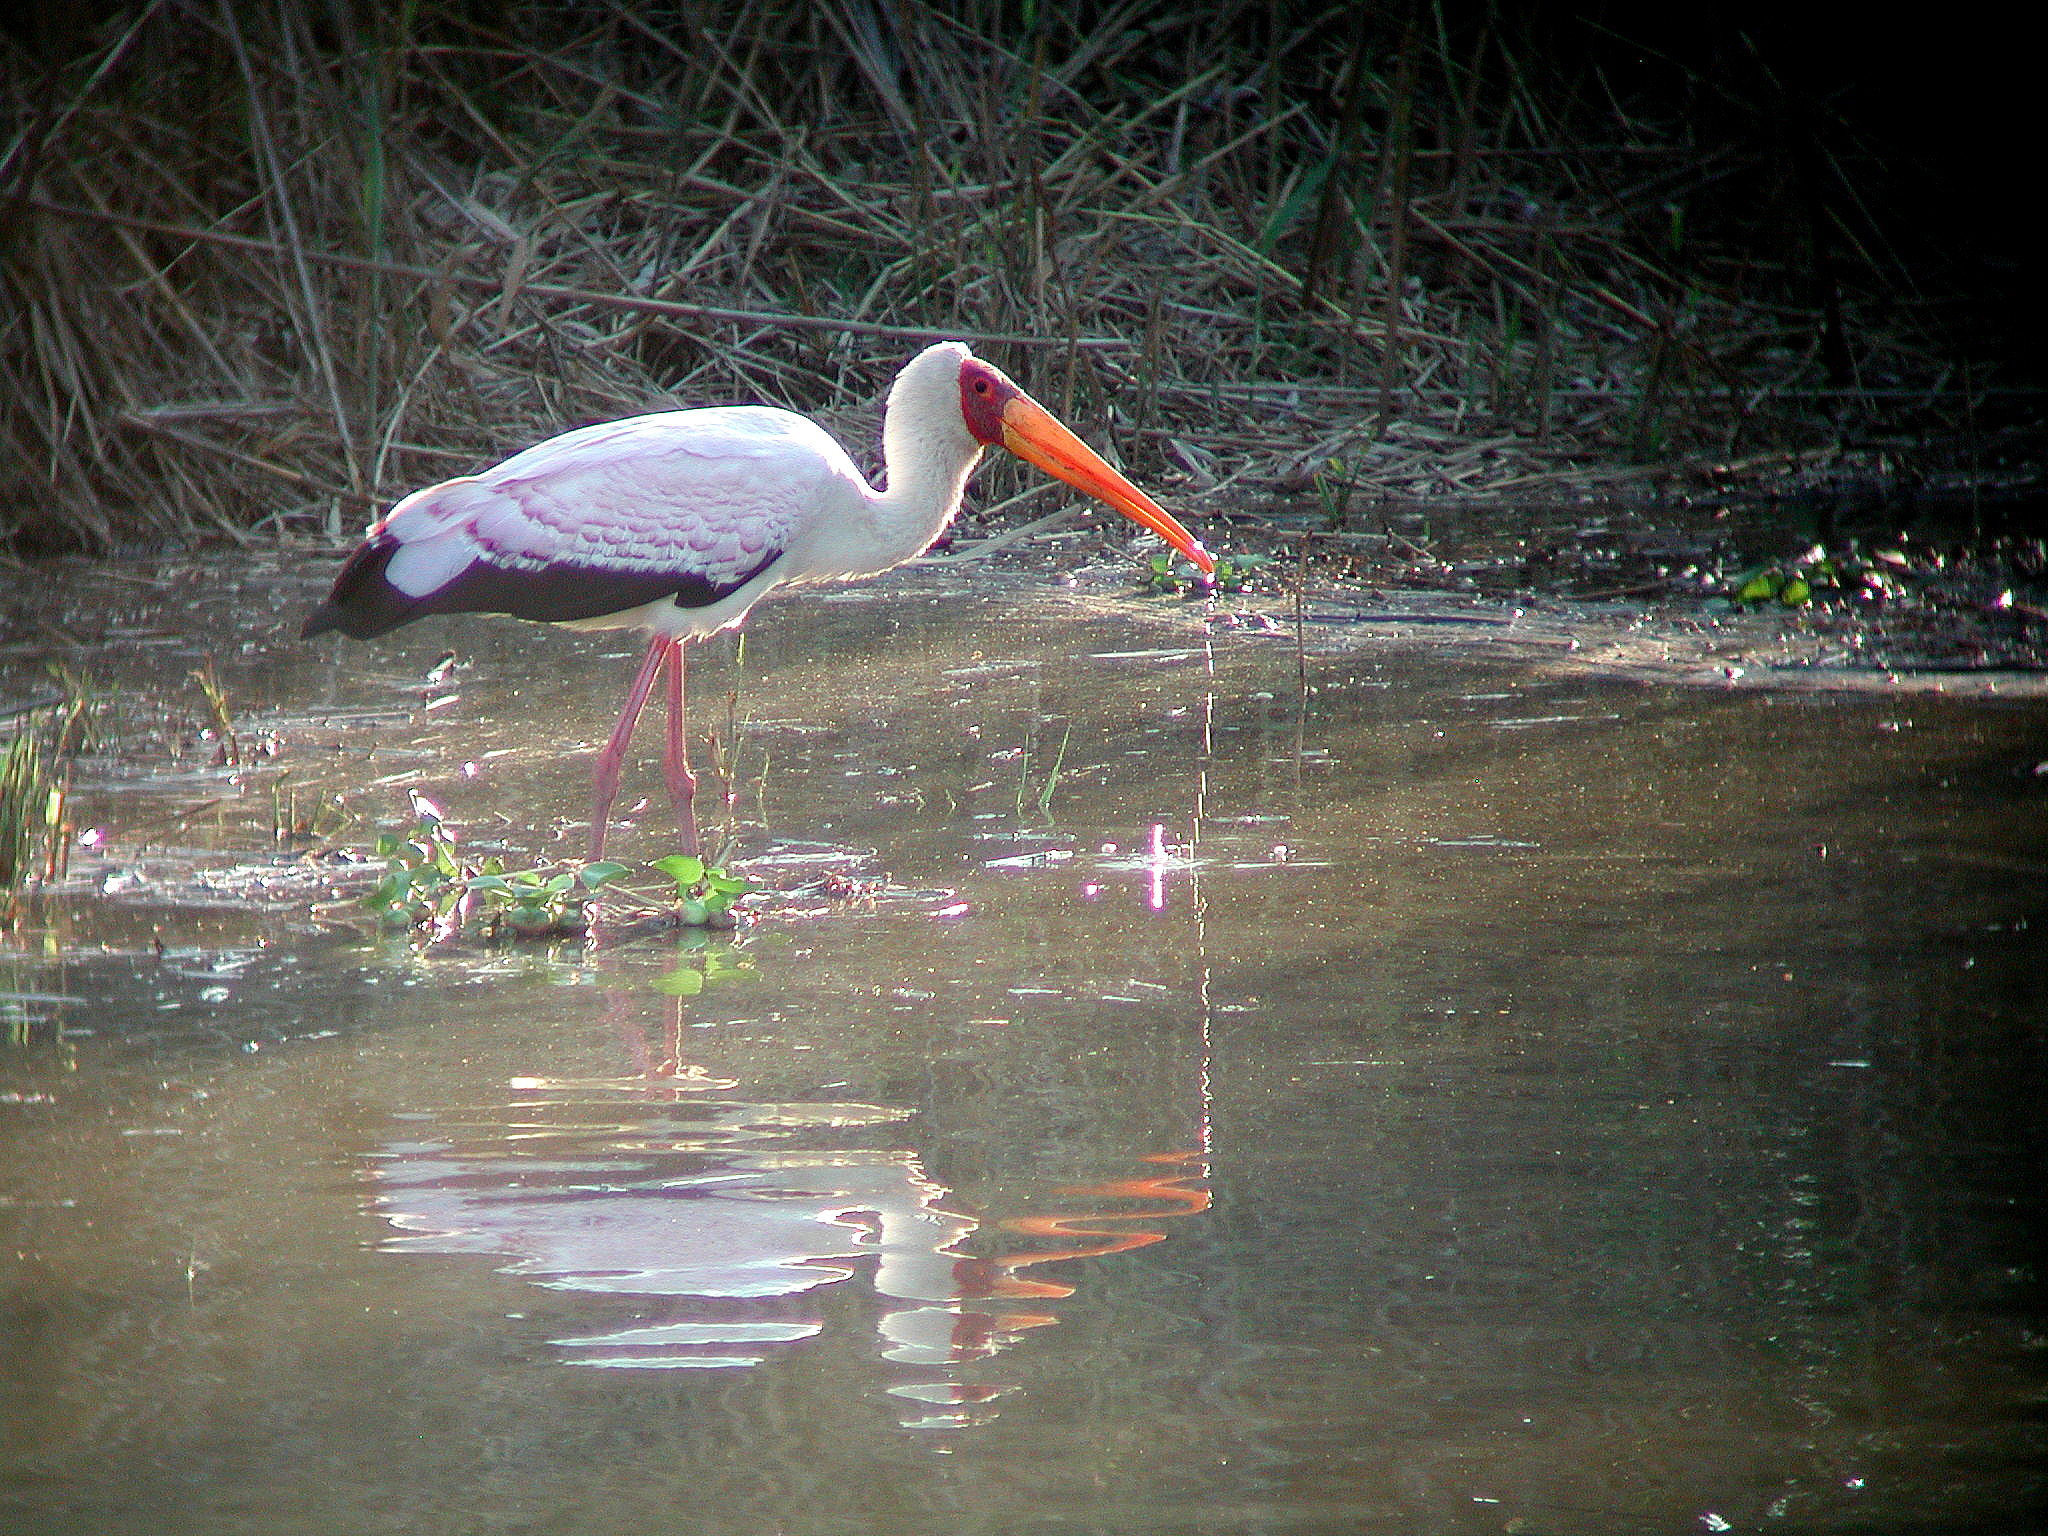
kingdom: Animalia
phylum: Chordata
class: Aves
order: Ciconiiformes
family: Ciconiidae
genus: Mycteria
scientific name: Mycteria ibis
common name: Yellow-billed stork
